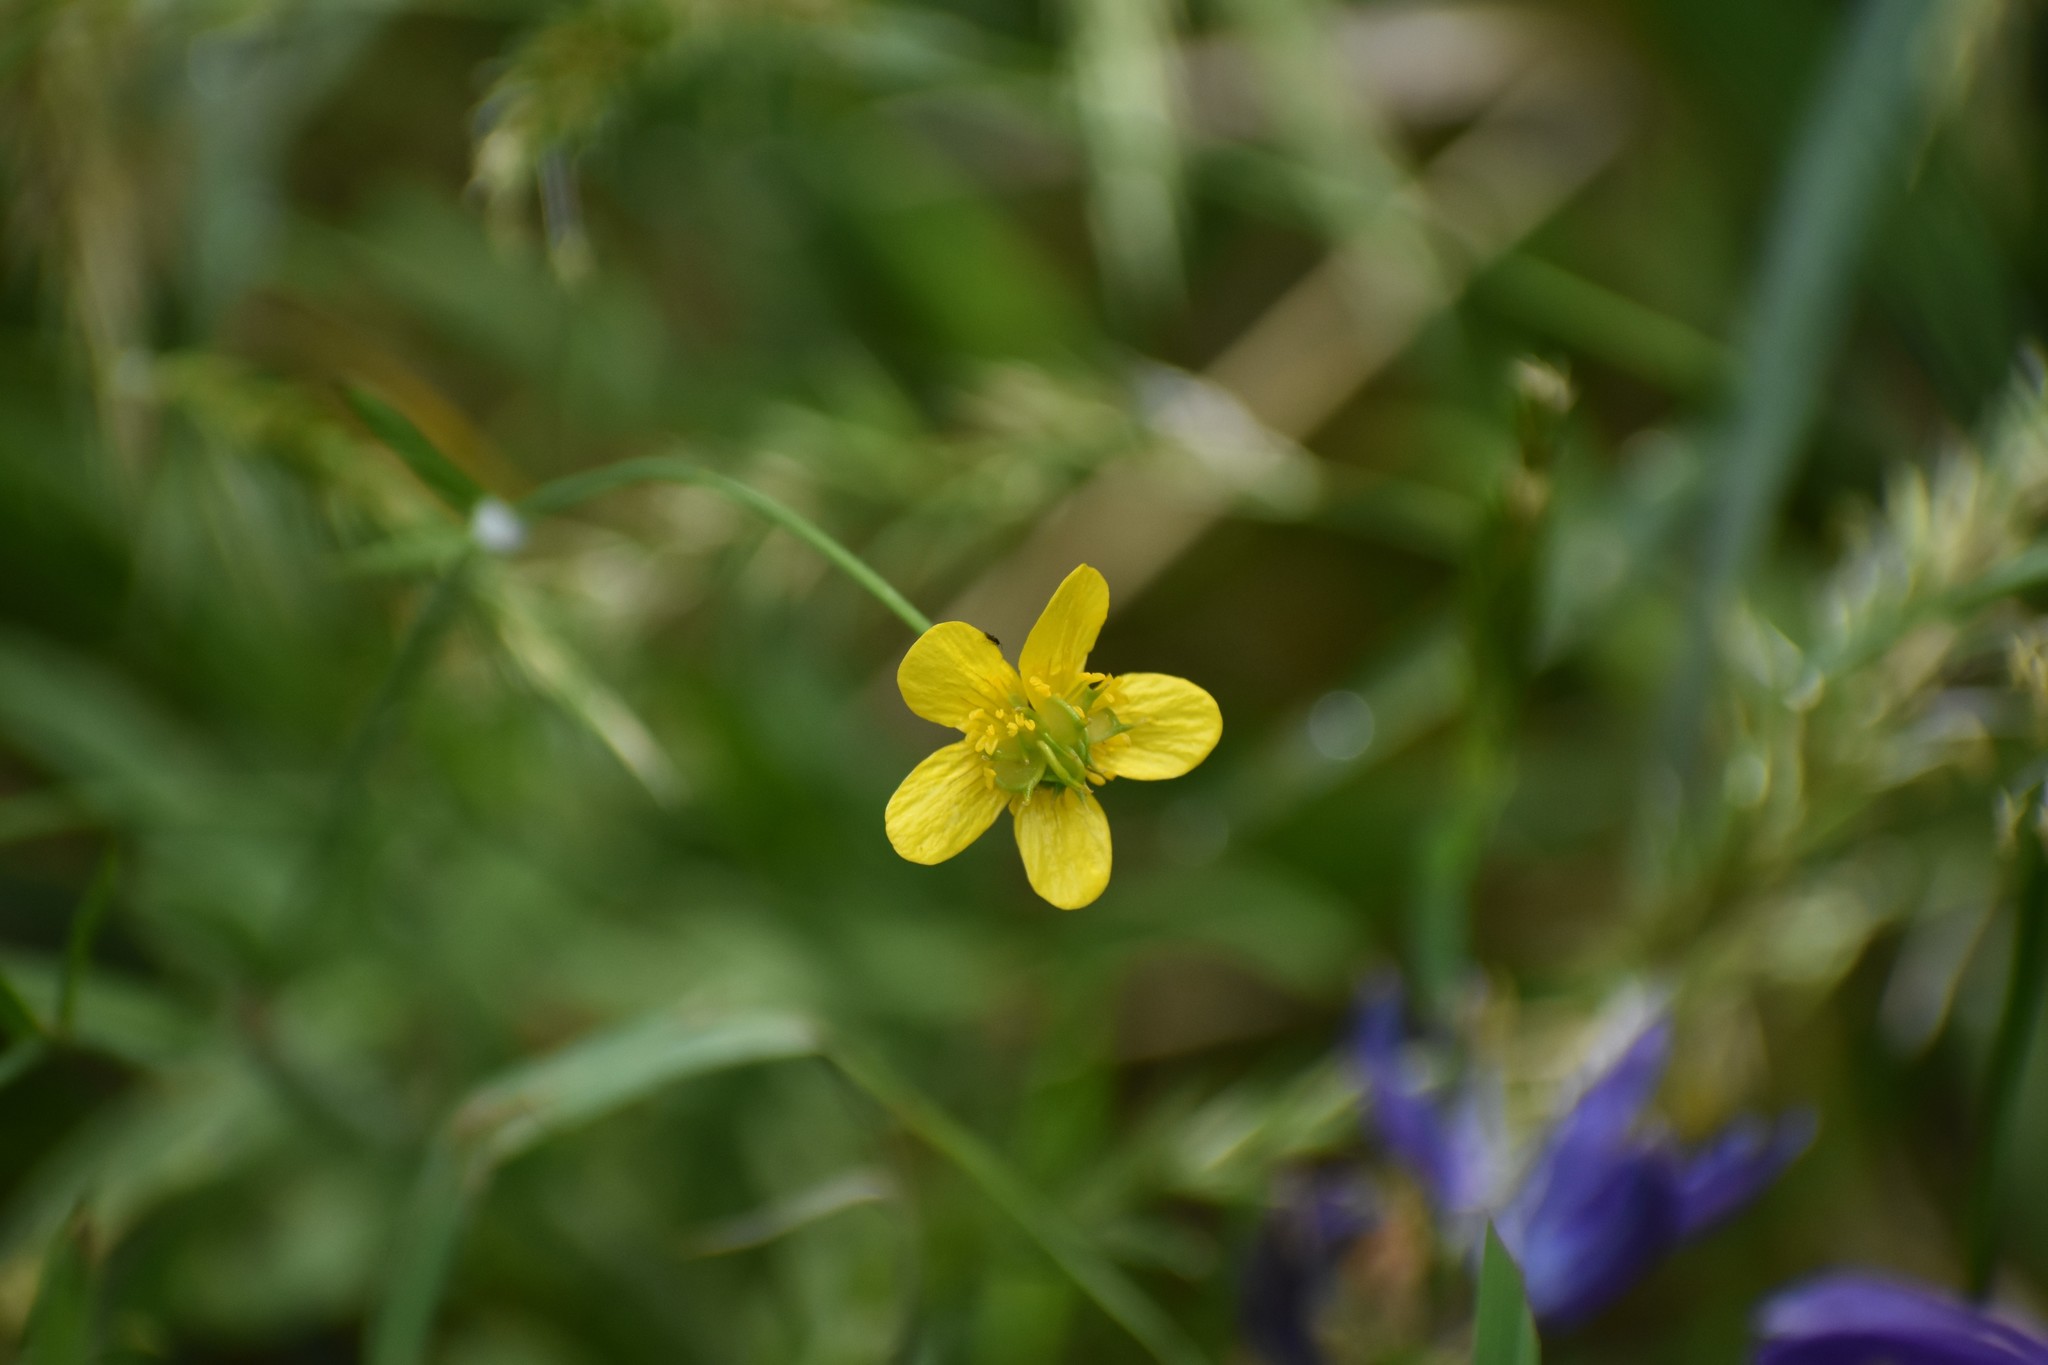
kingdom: Plantae
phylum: Tracheophyta
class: Magnoliopsida
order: Ranunculales
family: Ranunculaceae
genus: Ranunculus
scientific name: Ranunculus occidentalis
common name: Western buttercup
